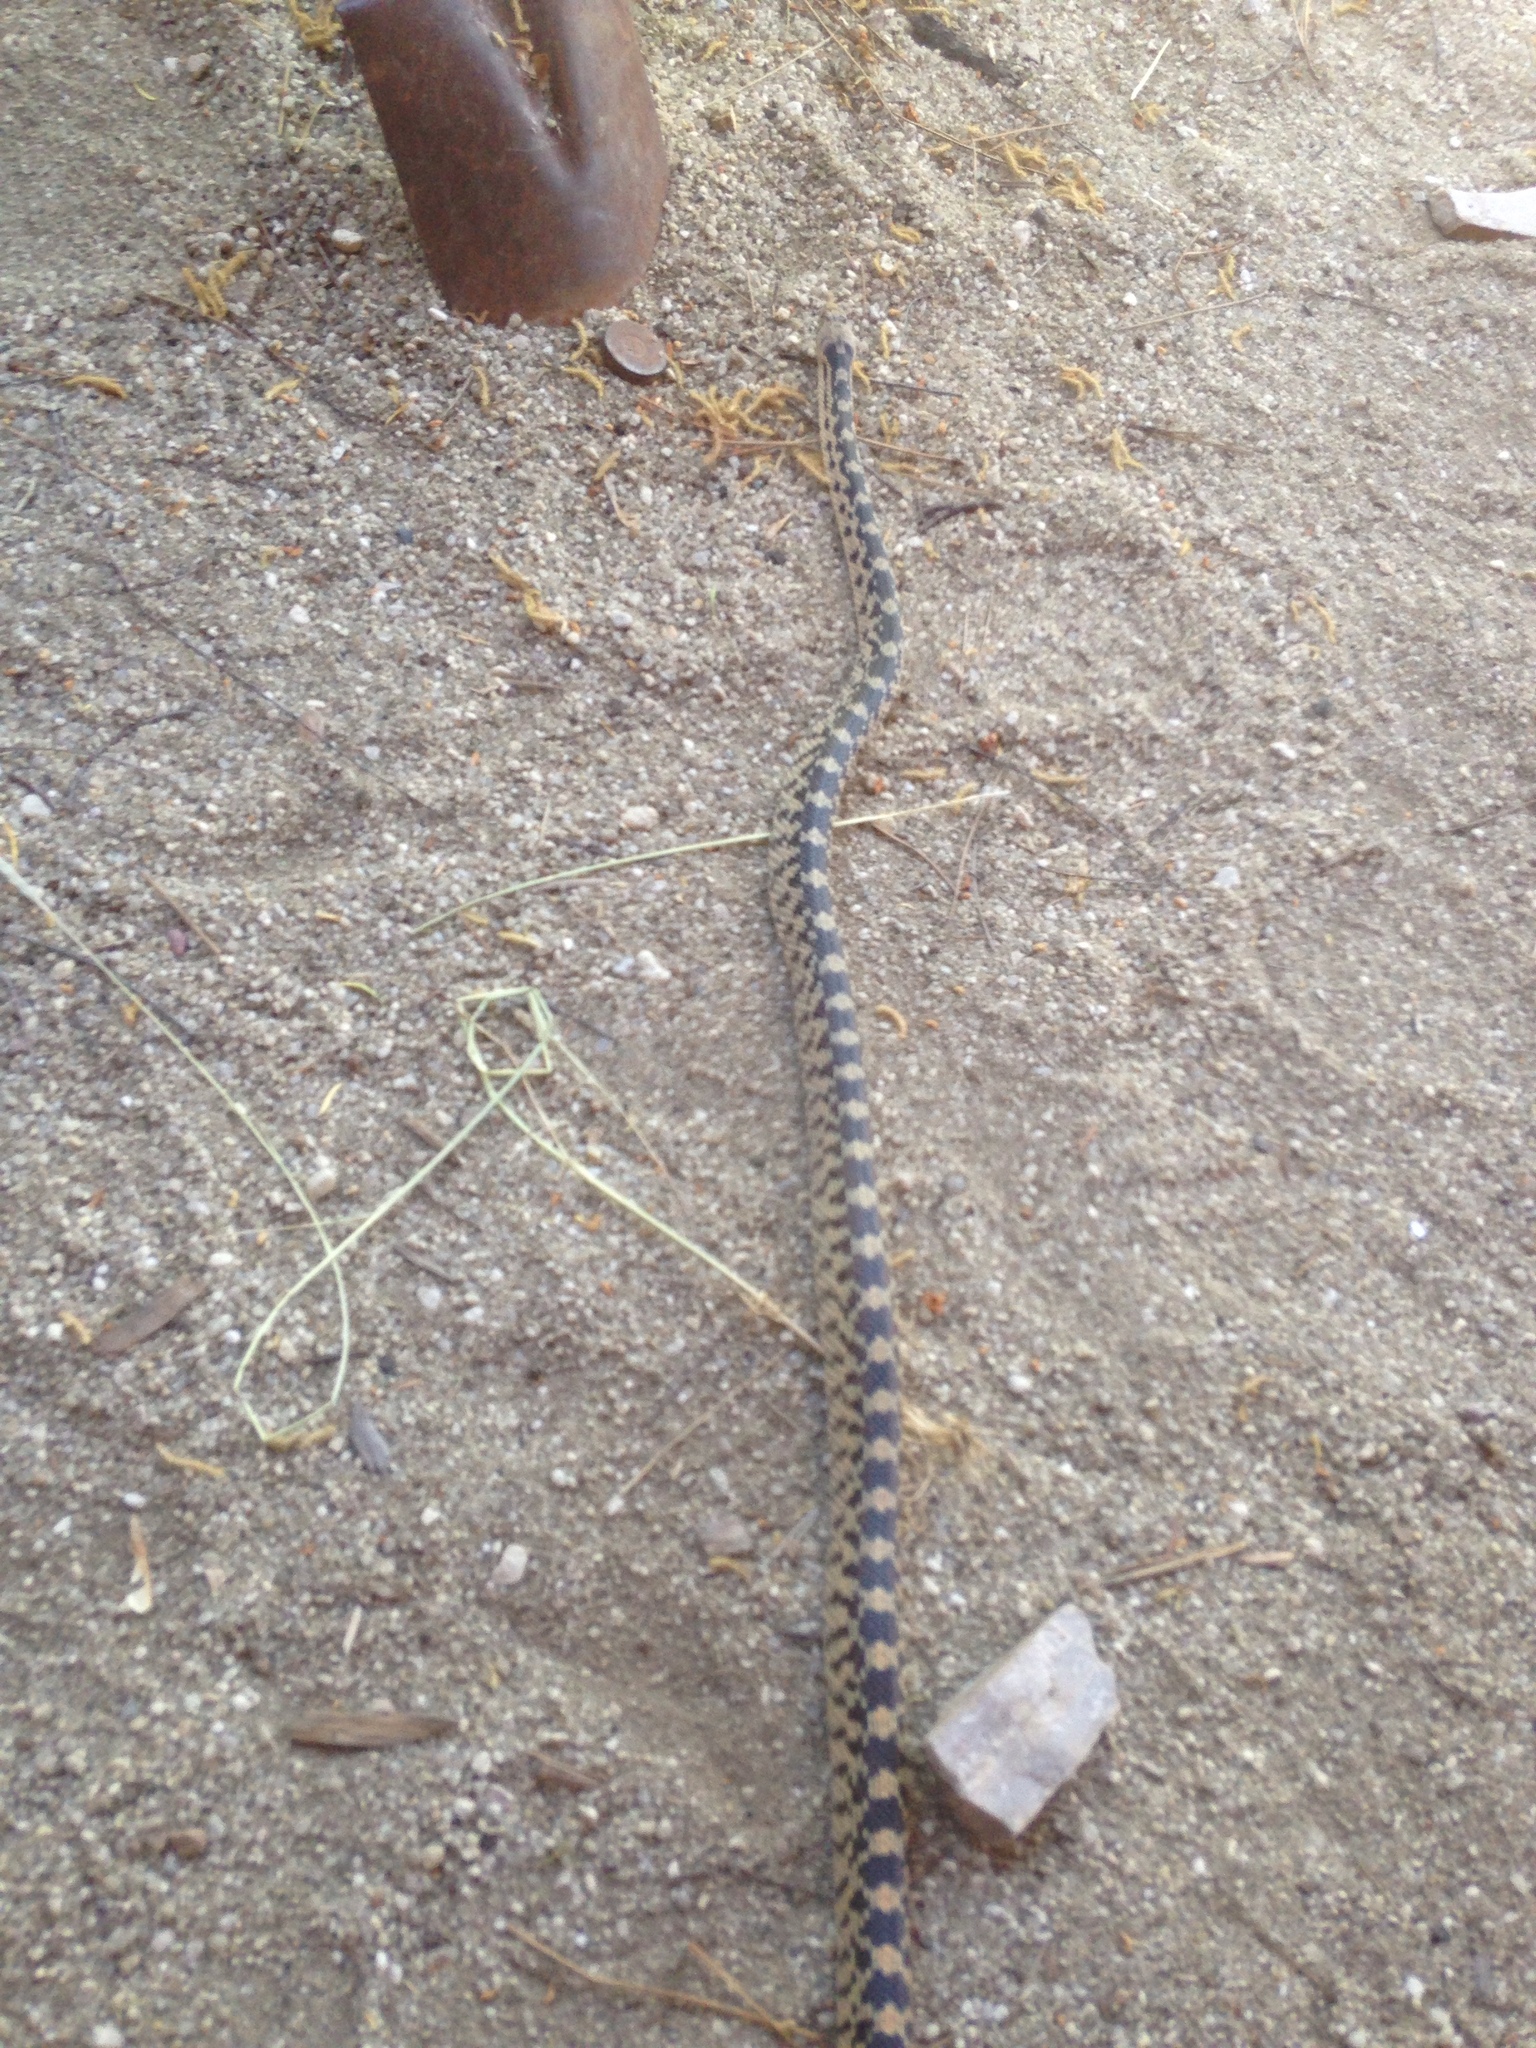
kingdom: Animalia
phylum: Chordata
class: Squamata
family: Colubridae
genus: Pituophis
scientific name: Pituophis catenifer
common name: Gopher snake
